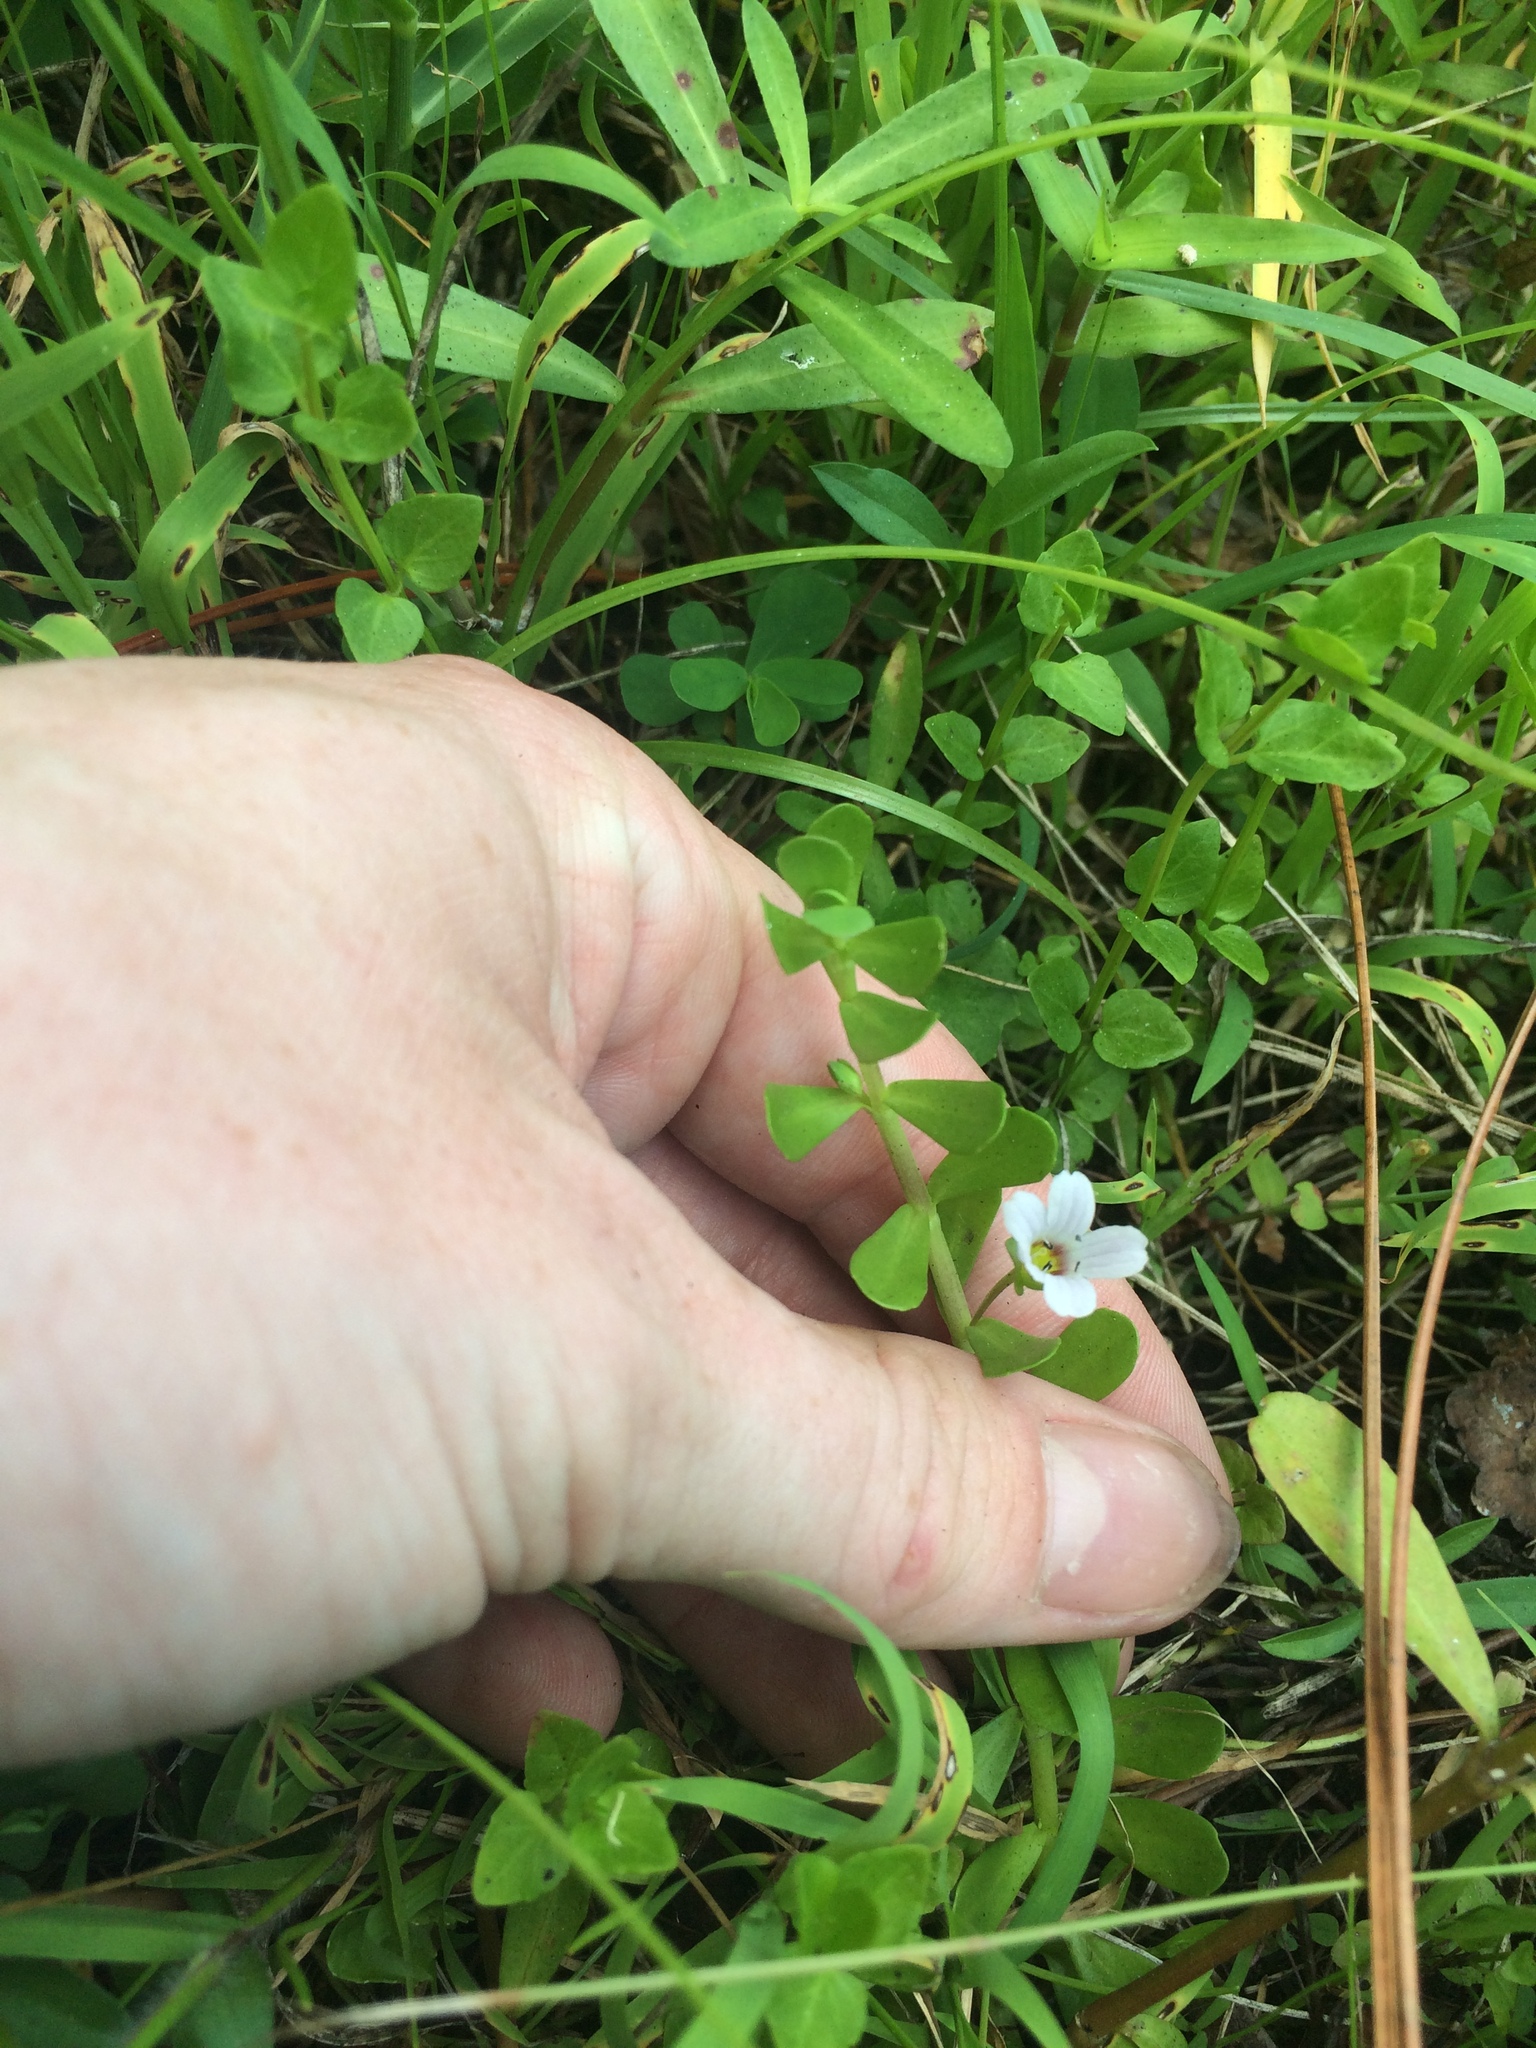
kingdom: Plantae
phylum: Tracheophyta
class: Magnoliopsida
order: Lamiales
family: Plantaginaceae
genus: Bacopa
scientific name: Bacopa monnieri
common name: Indian-pennywort
